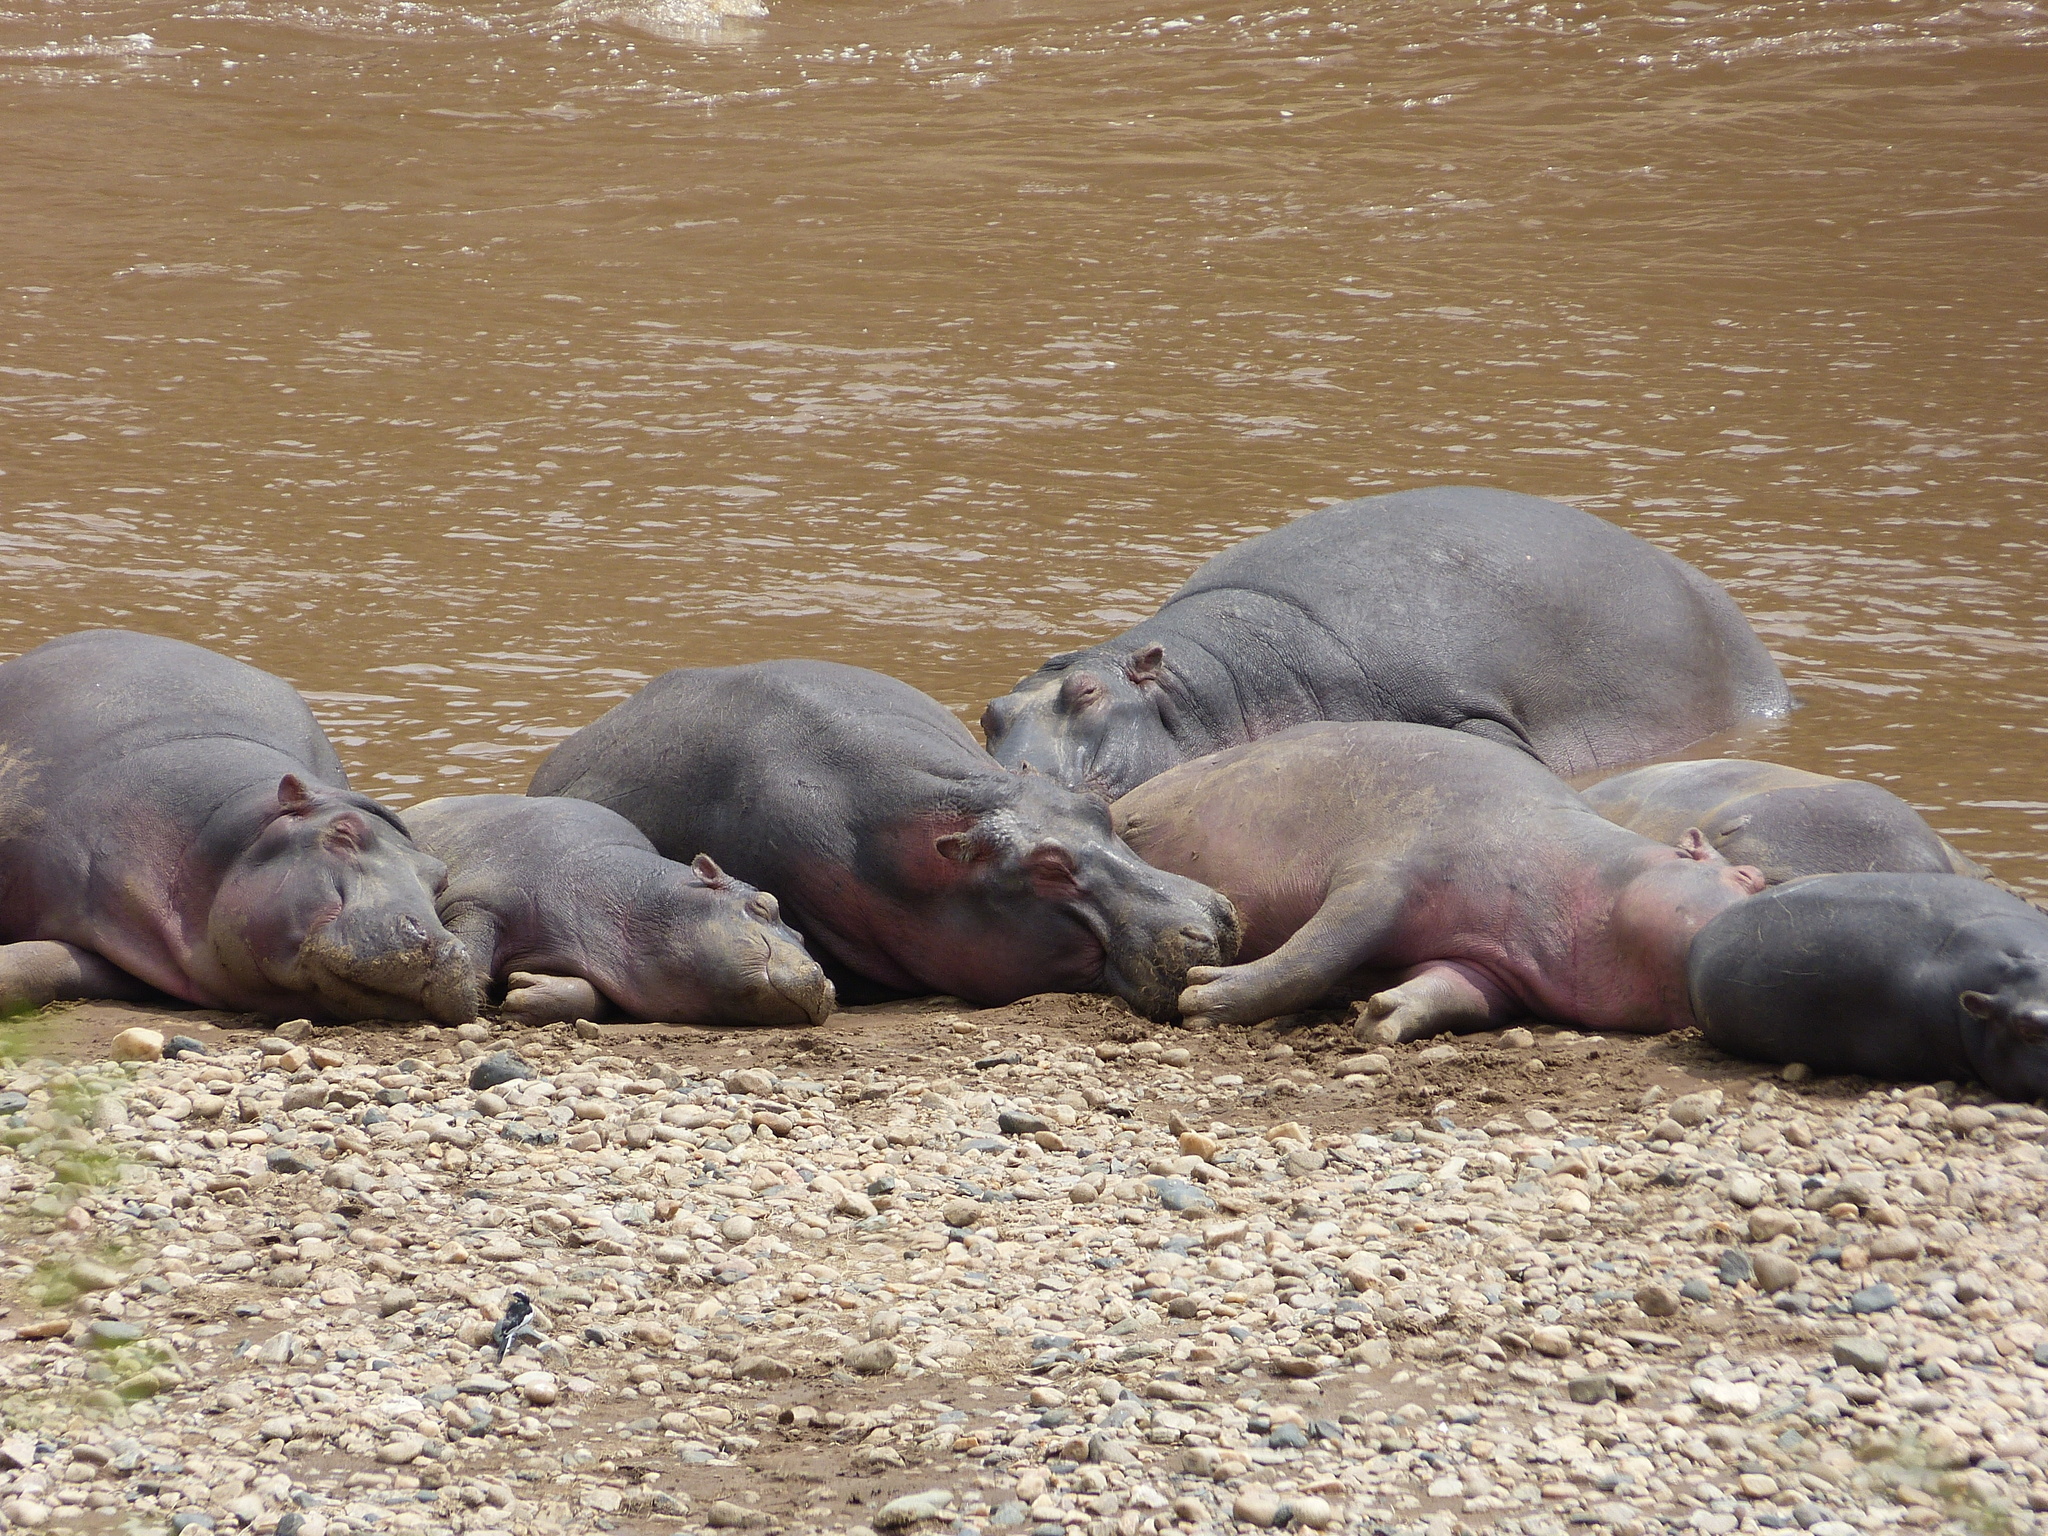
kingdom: Animalia
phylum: Chordata
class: Mammalia
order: Artiodactyla
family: Hippopotamidae
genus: Hippopotamus
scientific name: Hippopotamus amphibius
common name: Common hippopotamus
